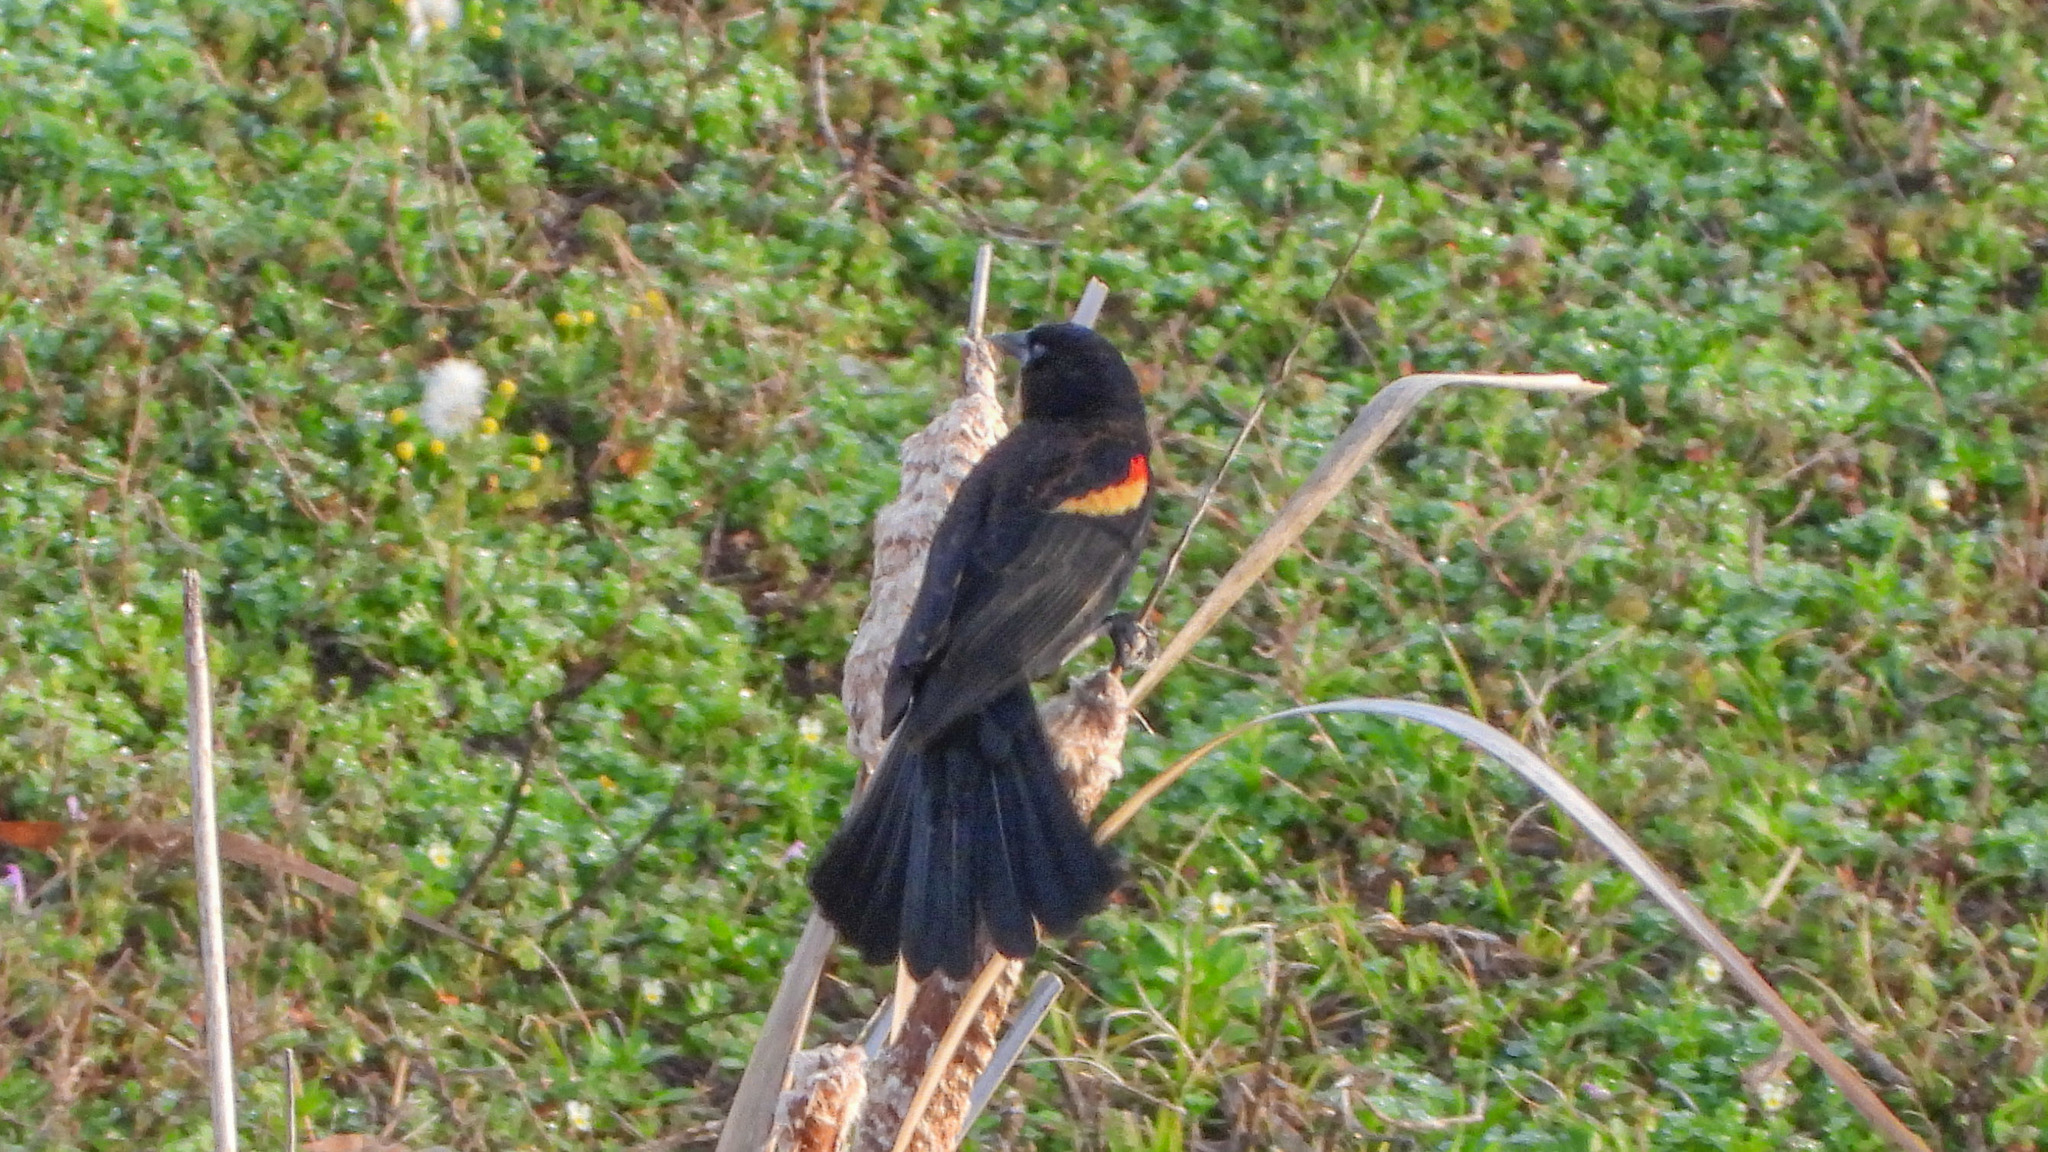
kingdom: Animalia
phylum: Chordata
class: Aves
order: Passeriformes
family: Icteridae
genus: Agelaius
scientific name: Agelaius phoeniceus
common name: Red-winged blackbird
